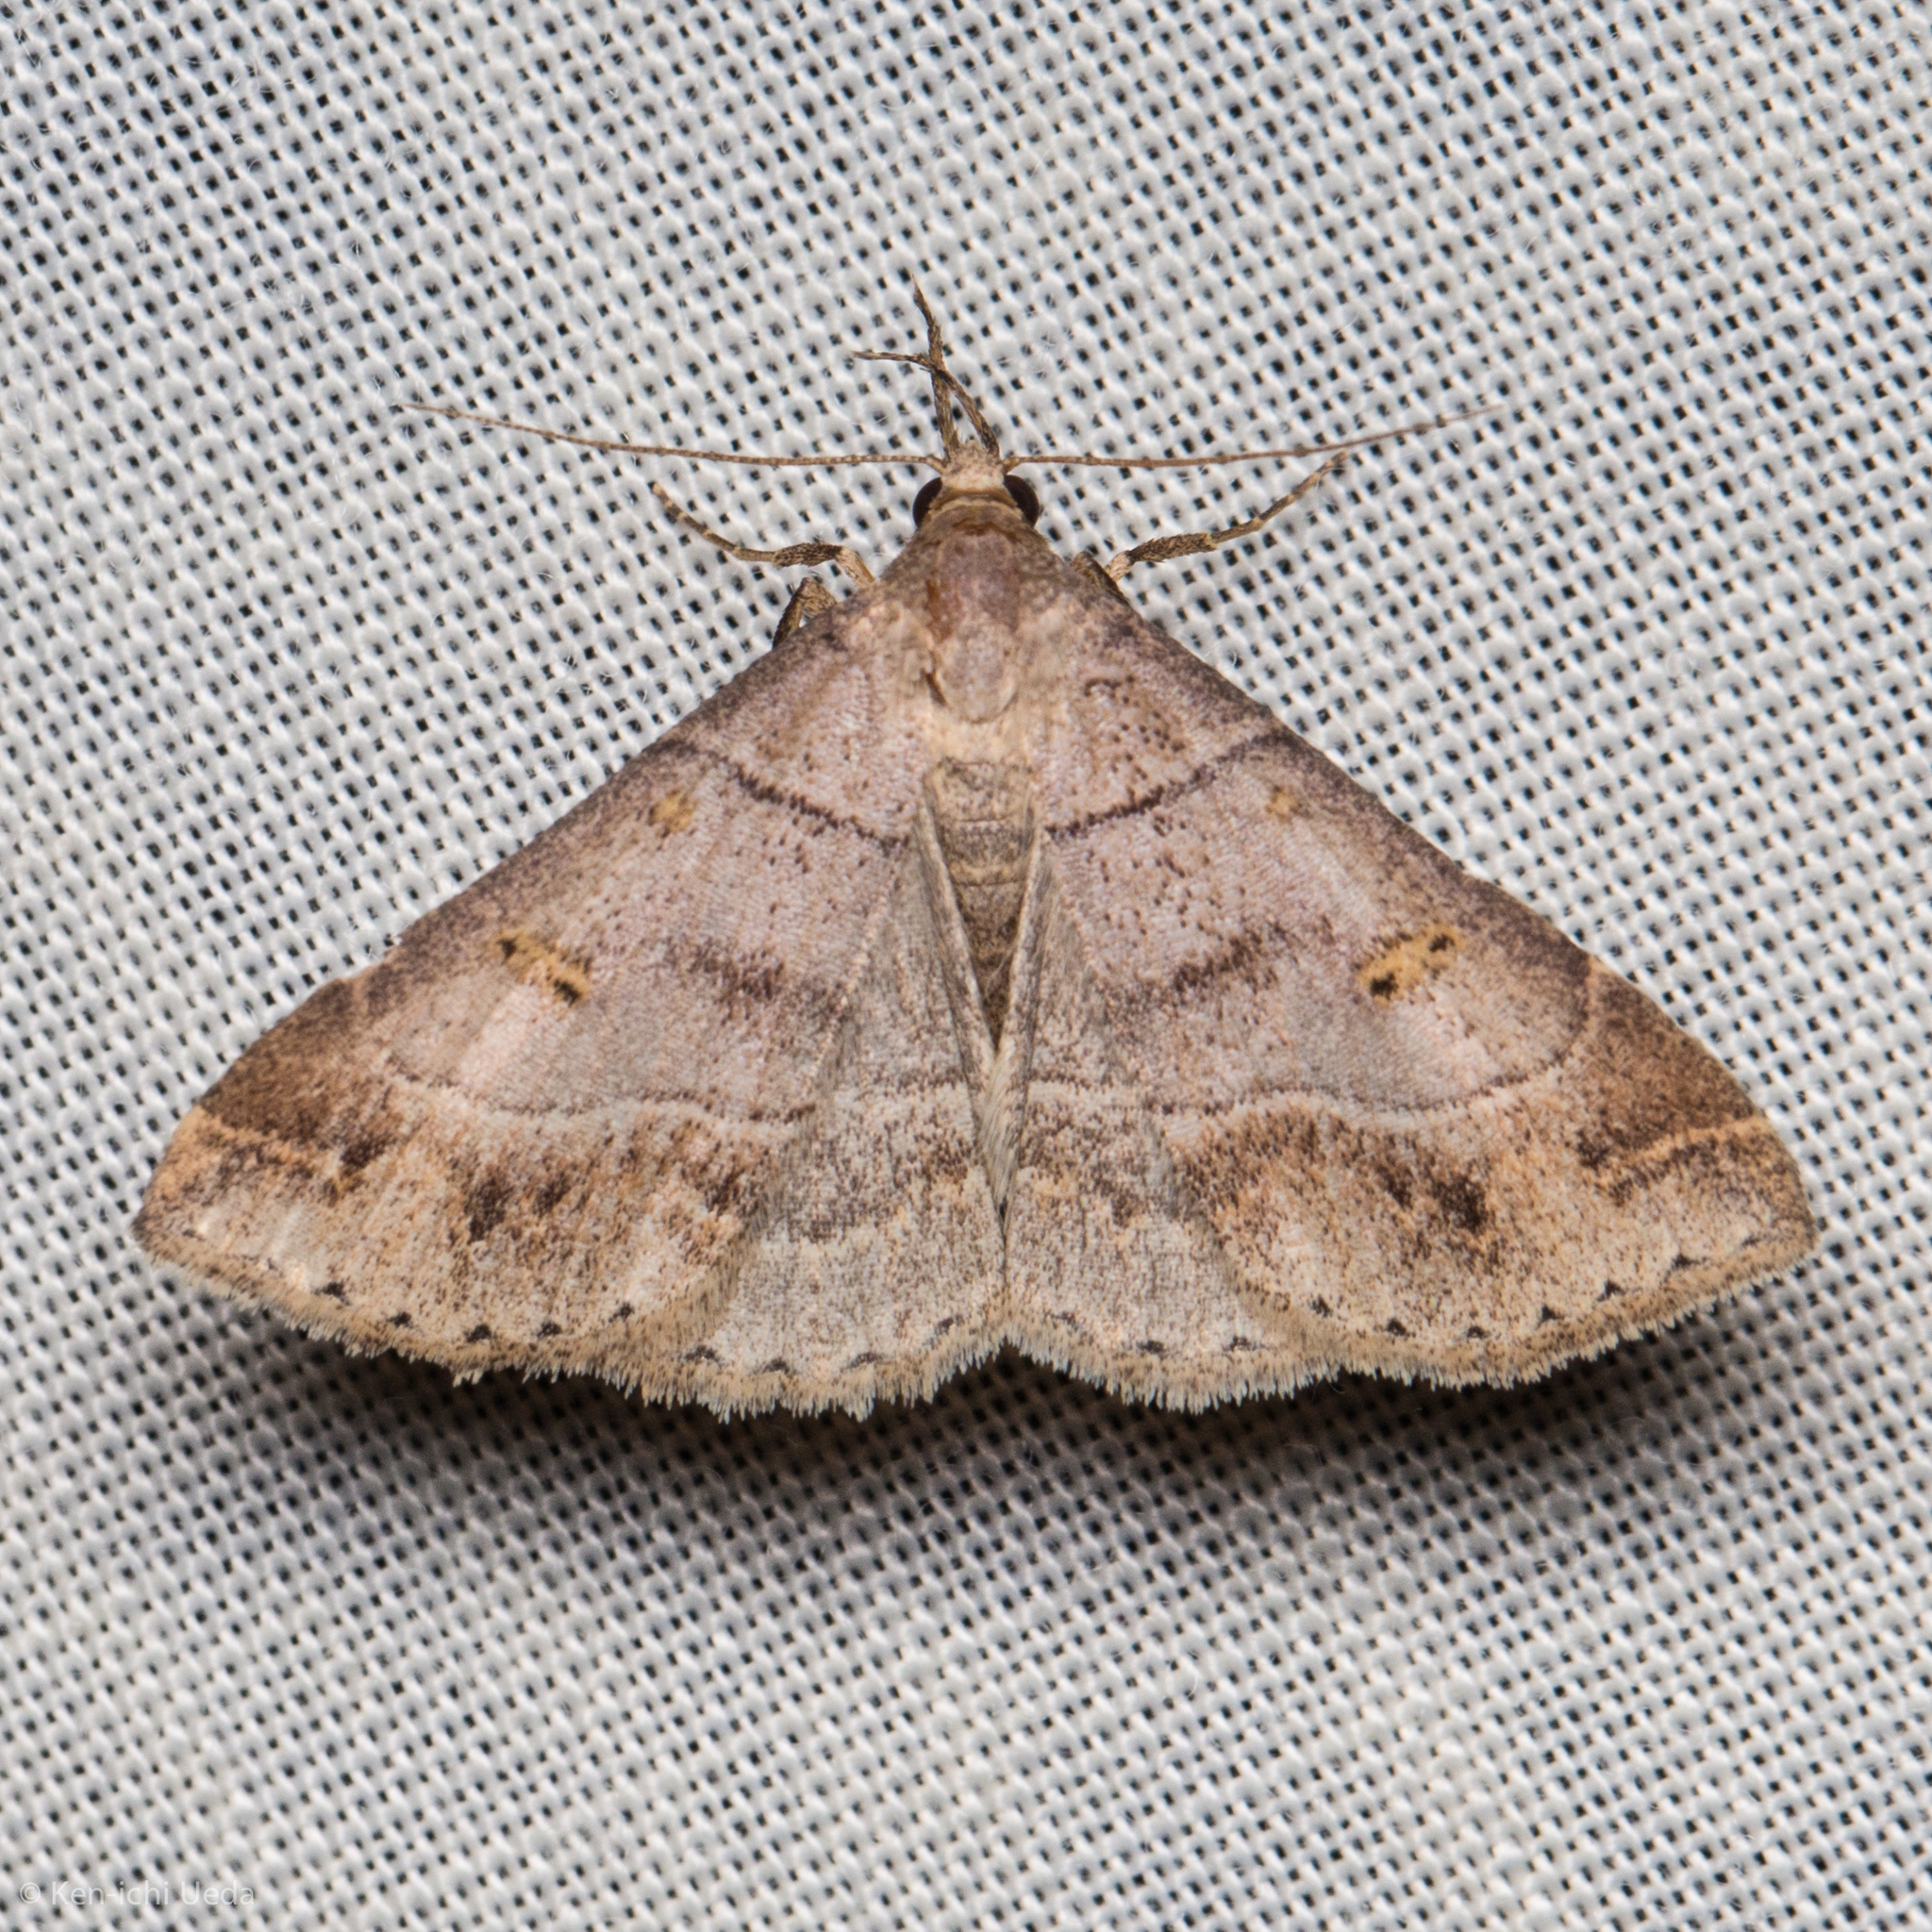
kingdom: Animalia
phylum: Arthropoda
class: Insecta
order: Lepidoptera
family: Erebidae
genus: Renia
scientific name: Renia flavipunctalis
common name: Yellow-spotted renia moth
